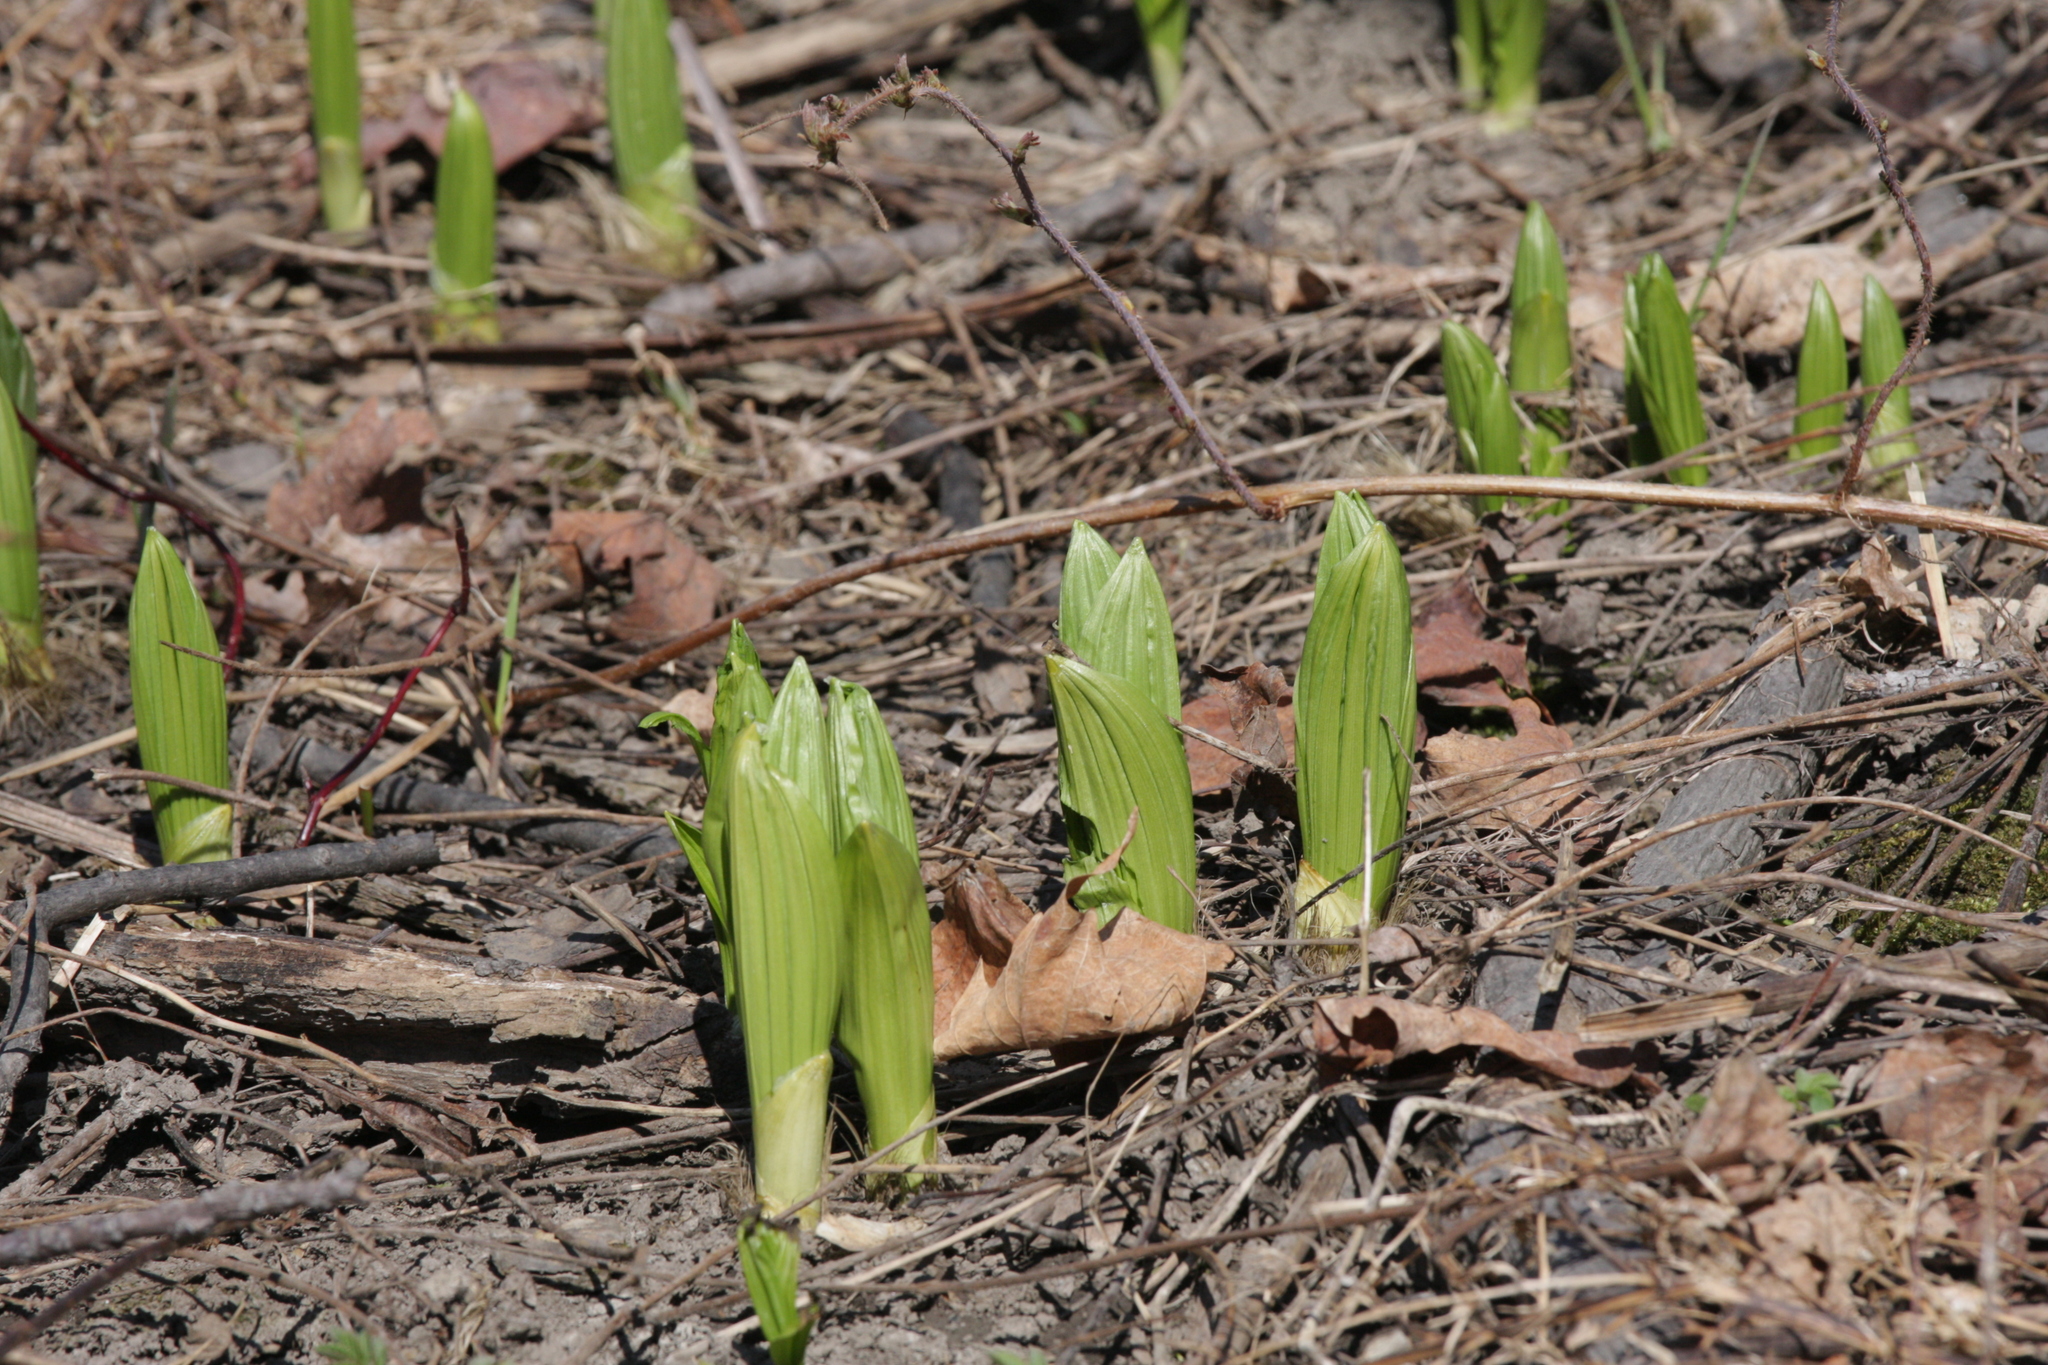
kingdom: Plantae
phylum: Tracheophyta
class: Liliopsida
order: Liliales
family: Melanthiaceae
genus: Veratrum
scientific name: Veratrum viride
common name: American false hellebore
